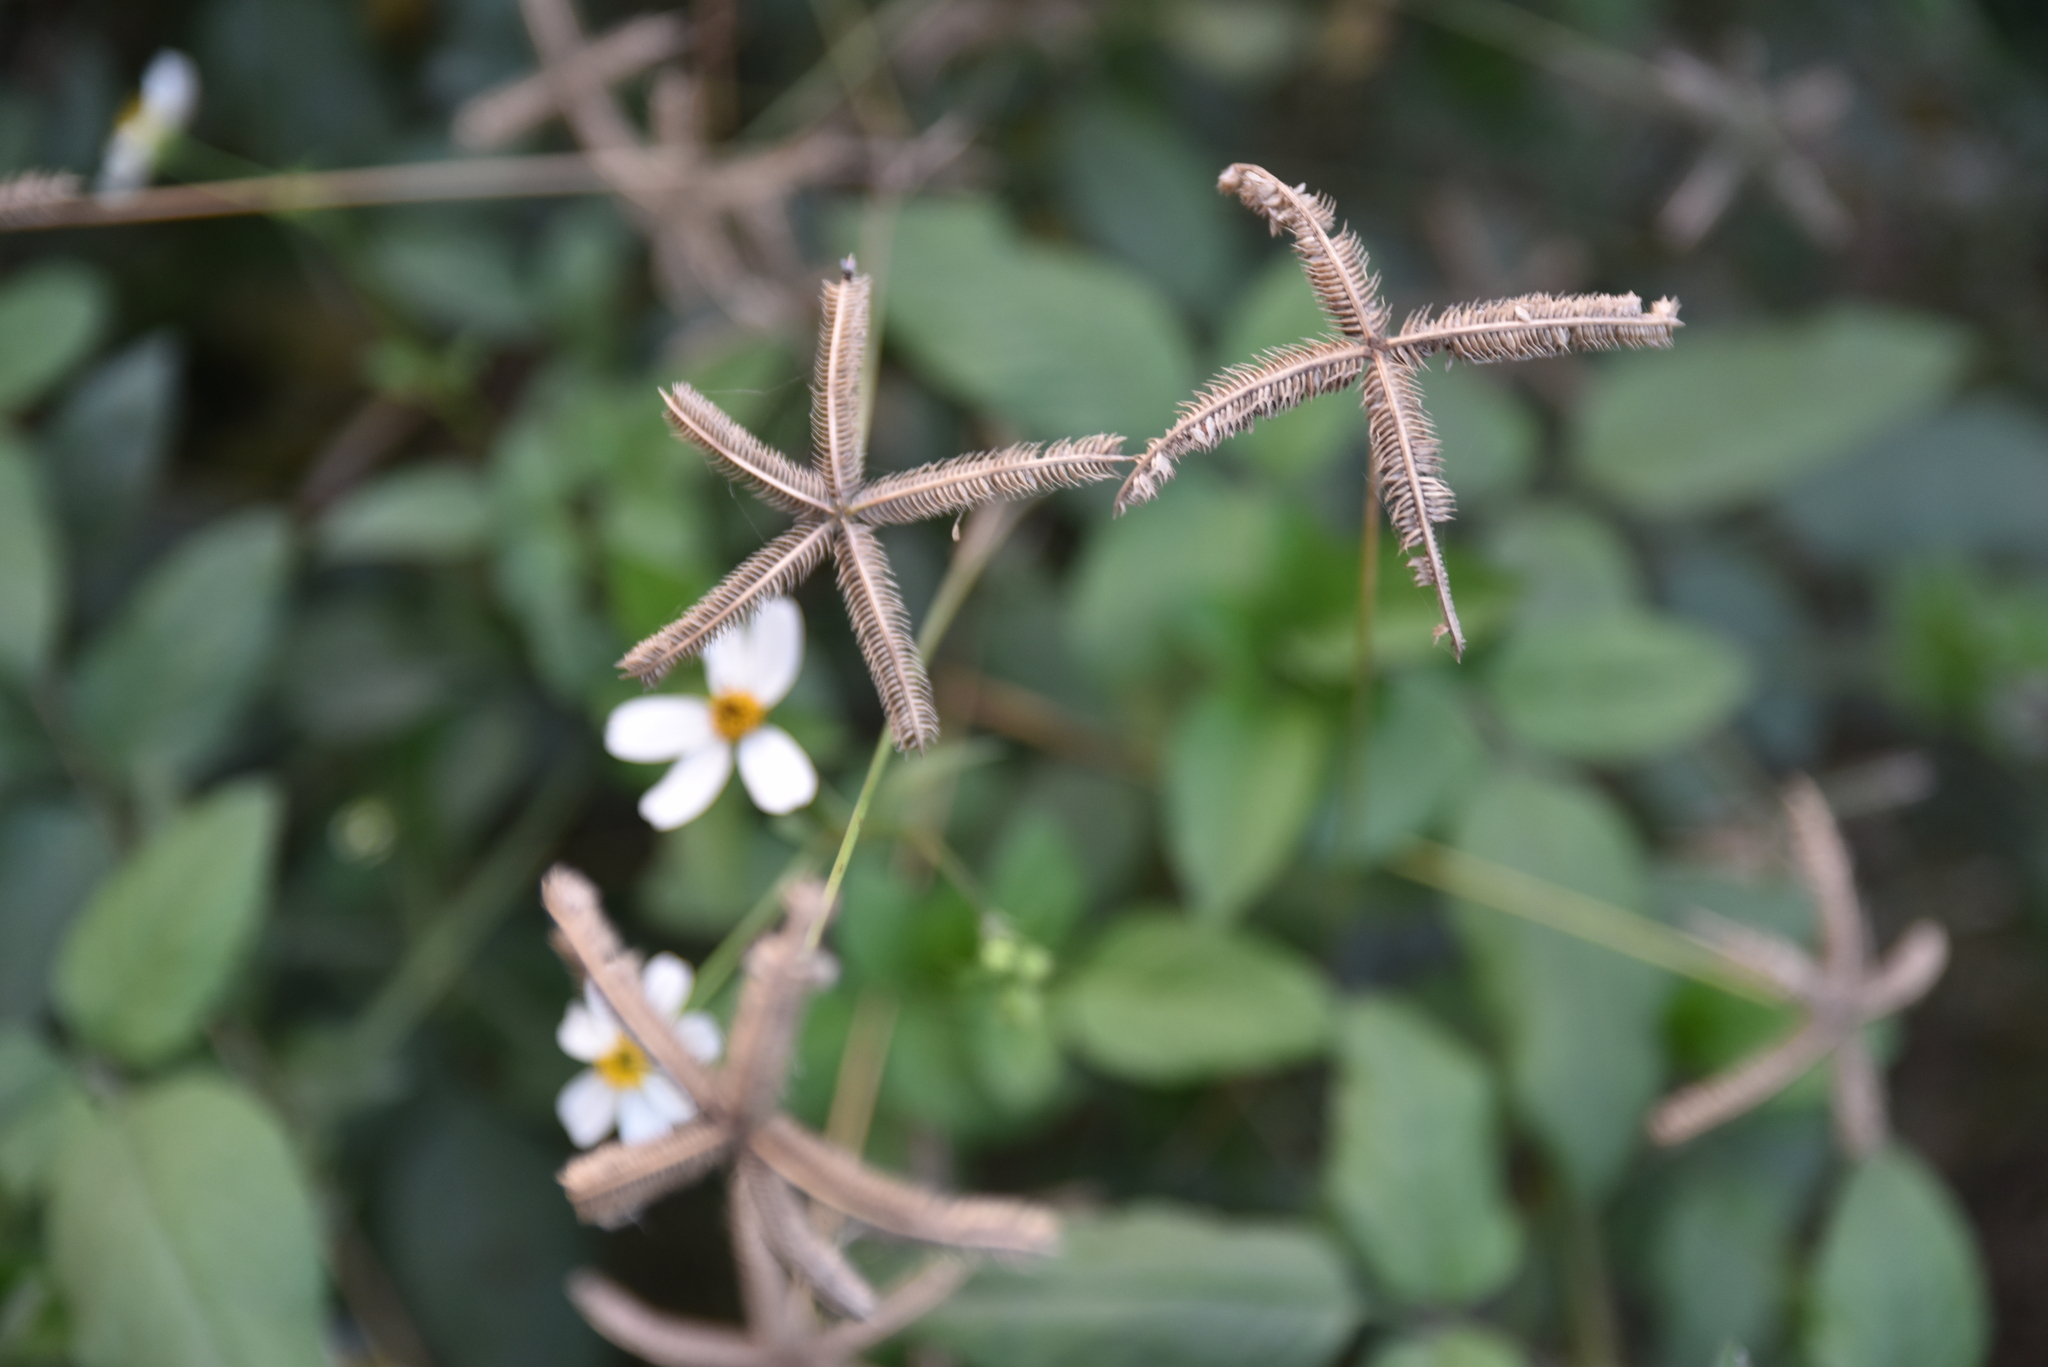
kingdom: Plantae
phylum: Tracheophyta
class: Liliopsida
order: Poales
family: Poaceae
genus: Dactyloctenium
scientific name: Dactyloctenium aegyptium
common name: Egyptian grass
